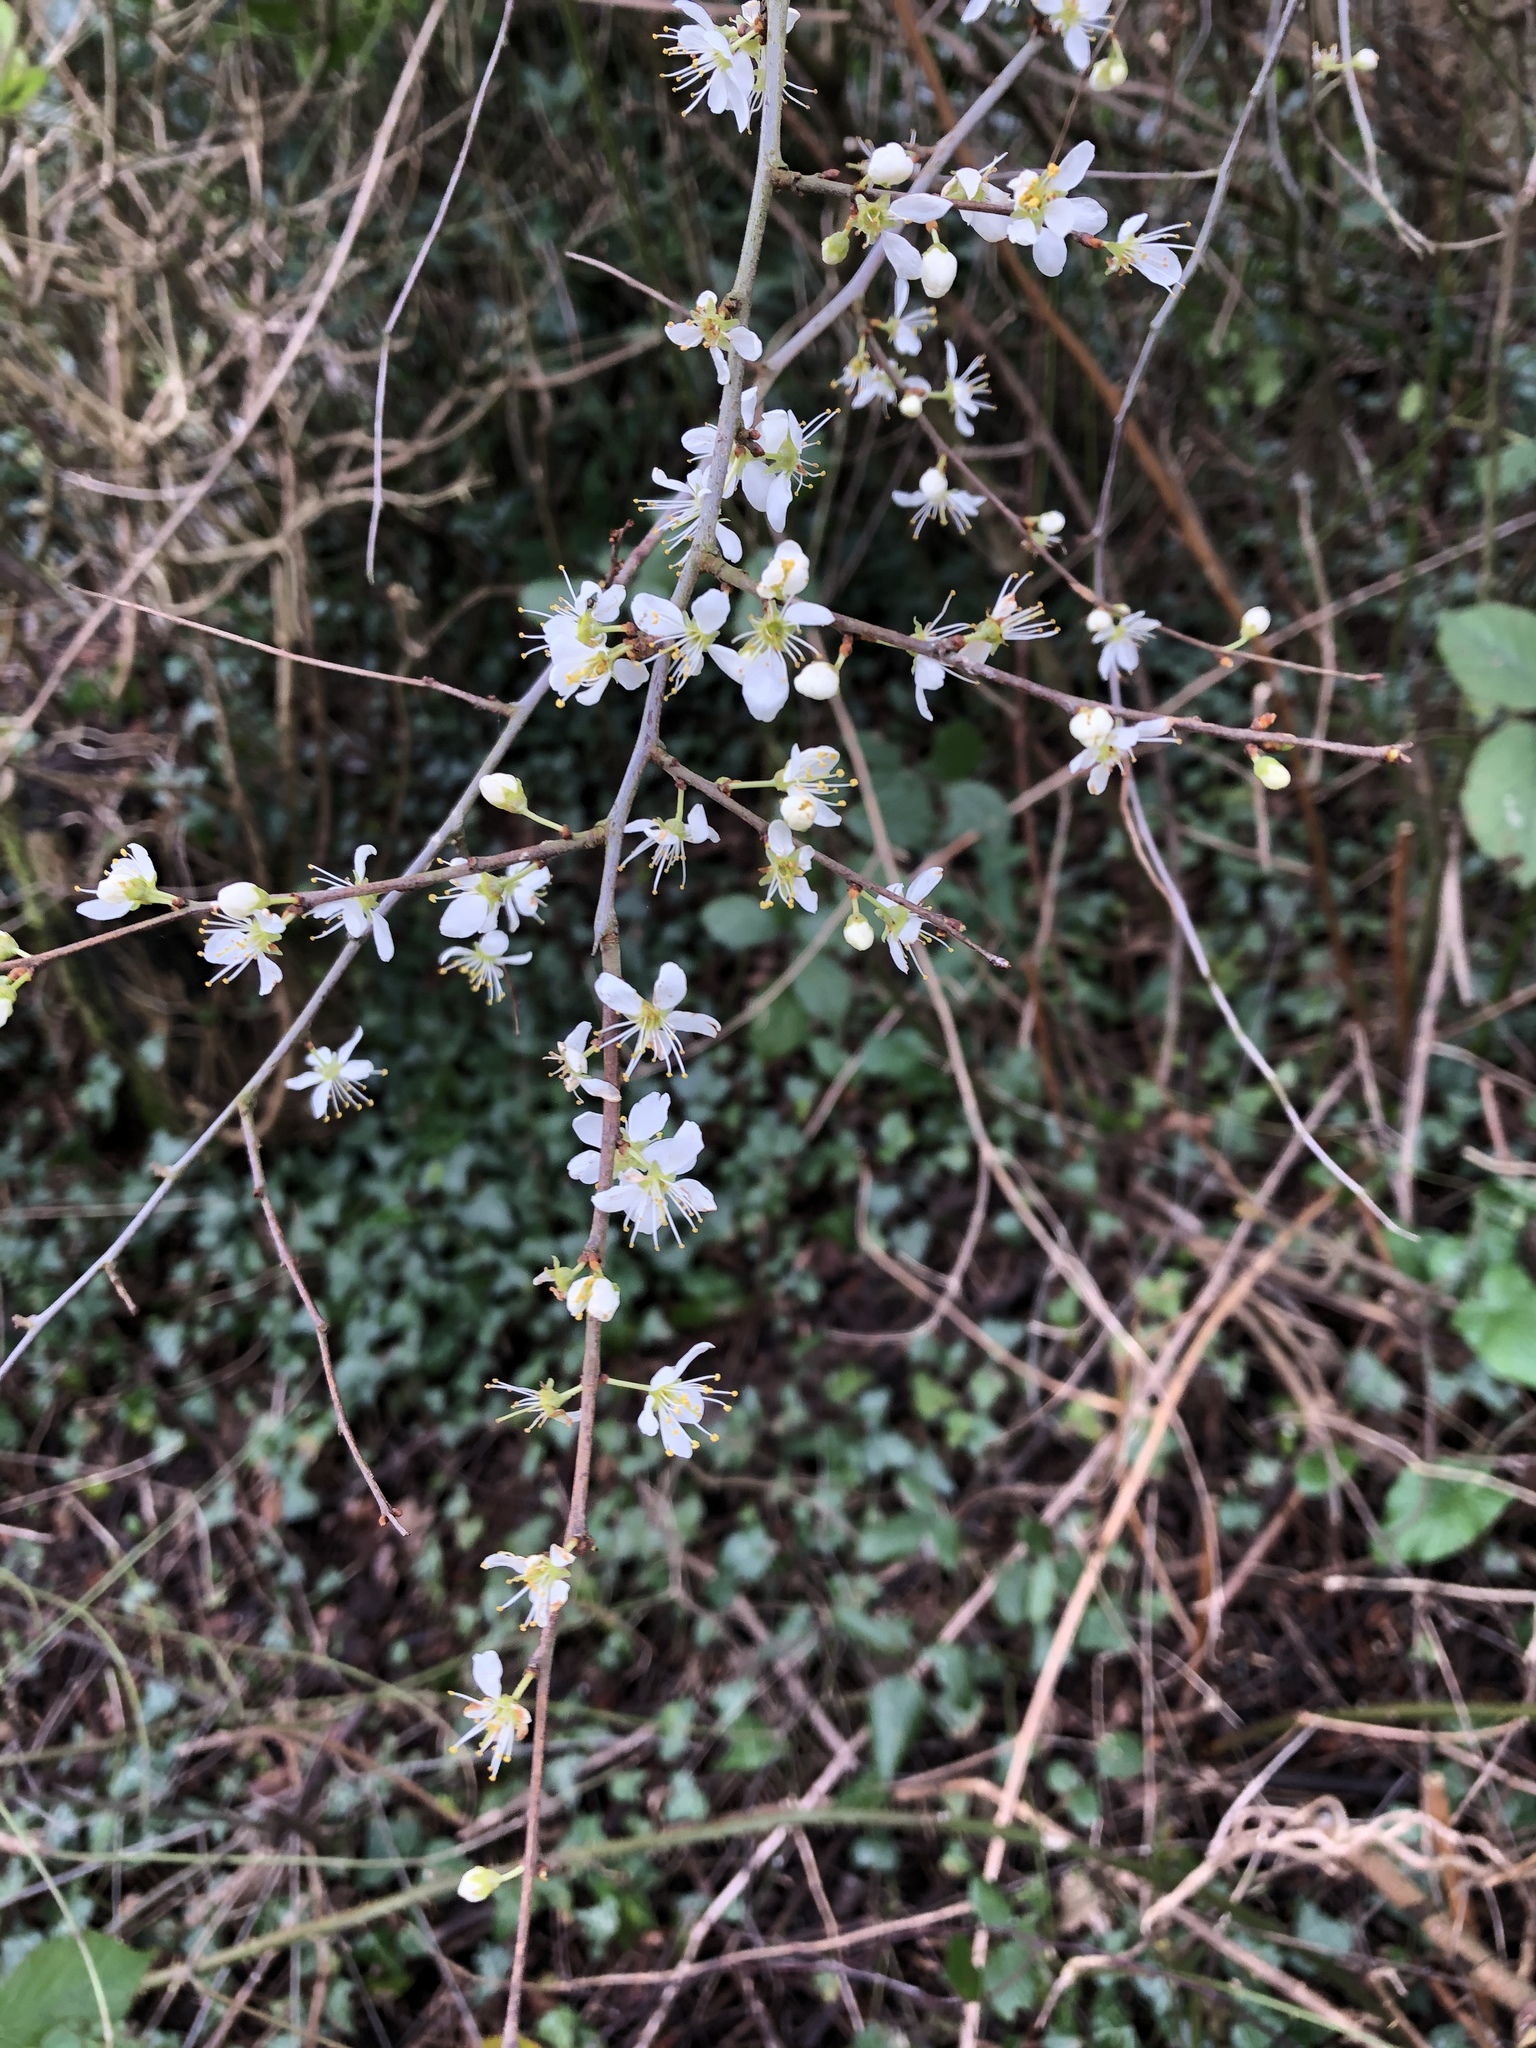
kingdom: Plantae
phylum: Tracheophyta
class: Magnoliopsida
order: Rosales
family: Rosaceae
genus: Prunus
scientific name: Prunus spinosa
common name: Blackthorn
